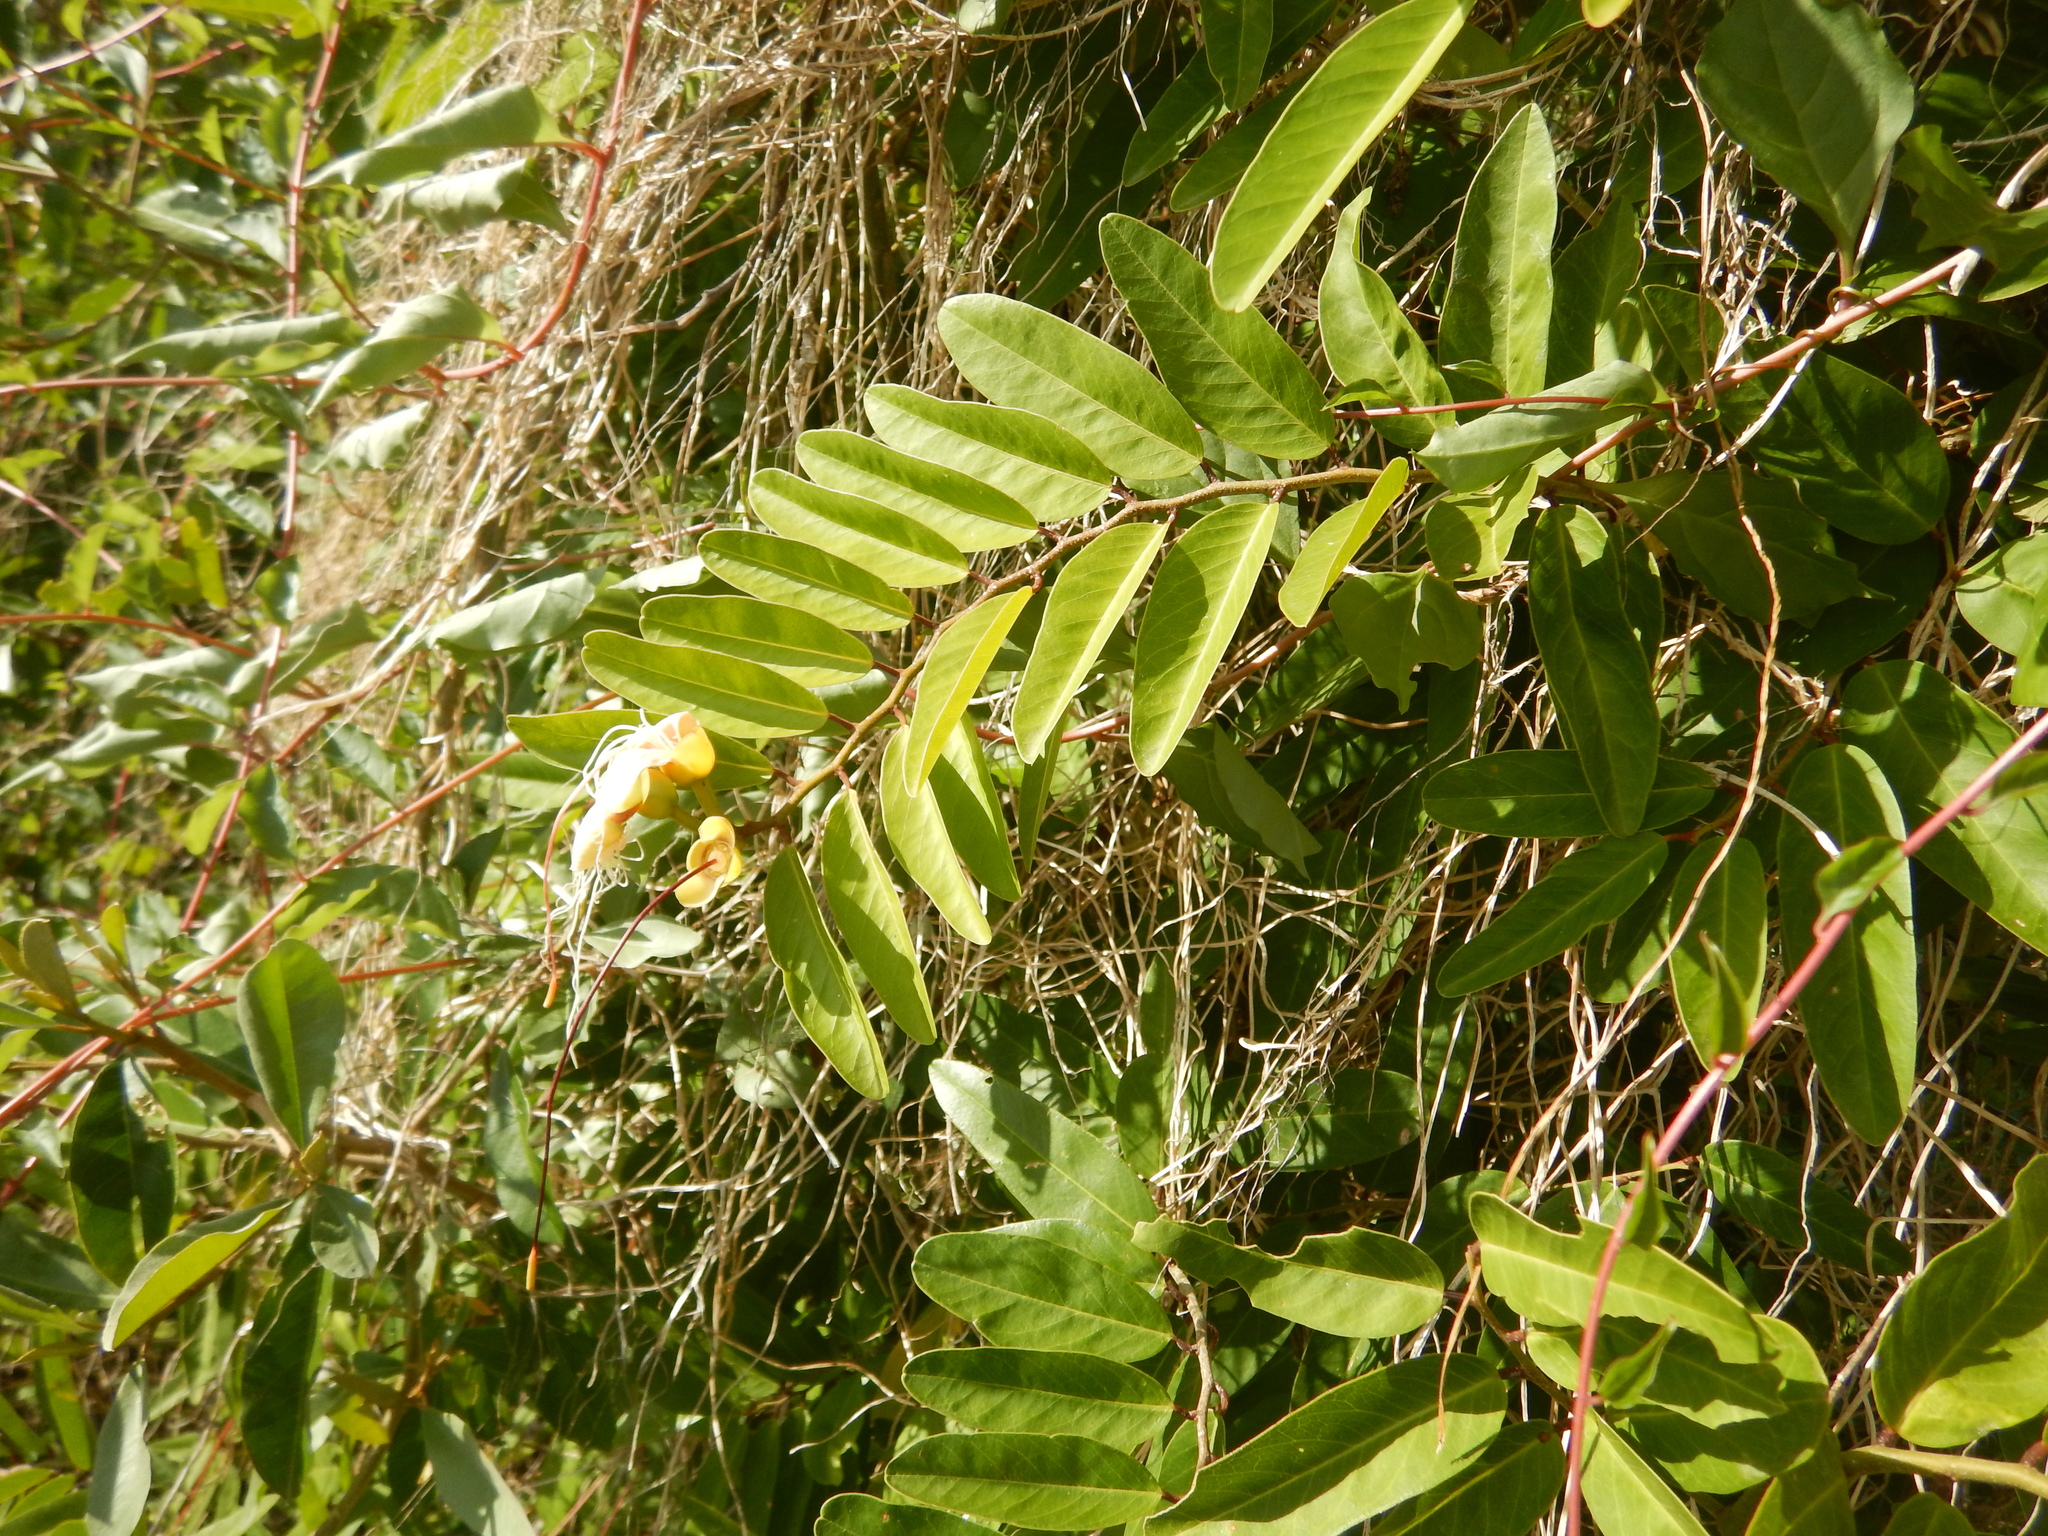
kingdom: Plantae
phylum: Tracheophyta
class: Magnoliopsida
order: Brassicales
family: Capparaceae
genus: Cynophalla
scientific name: Cynophalla flexuosa
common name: Capertree
